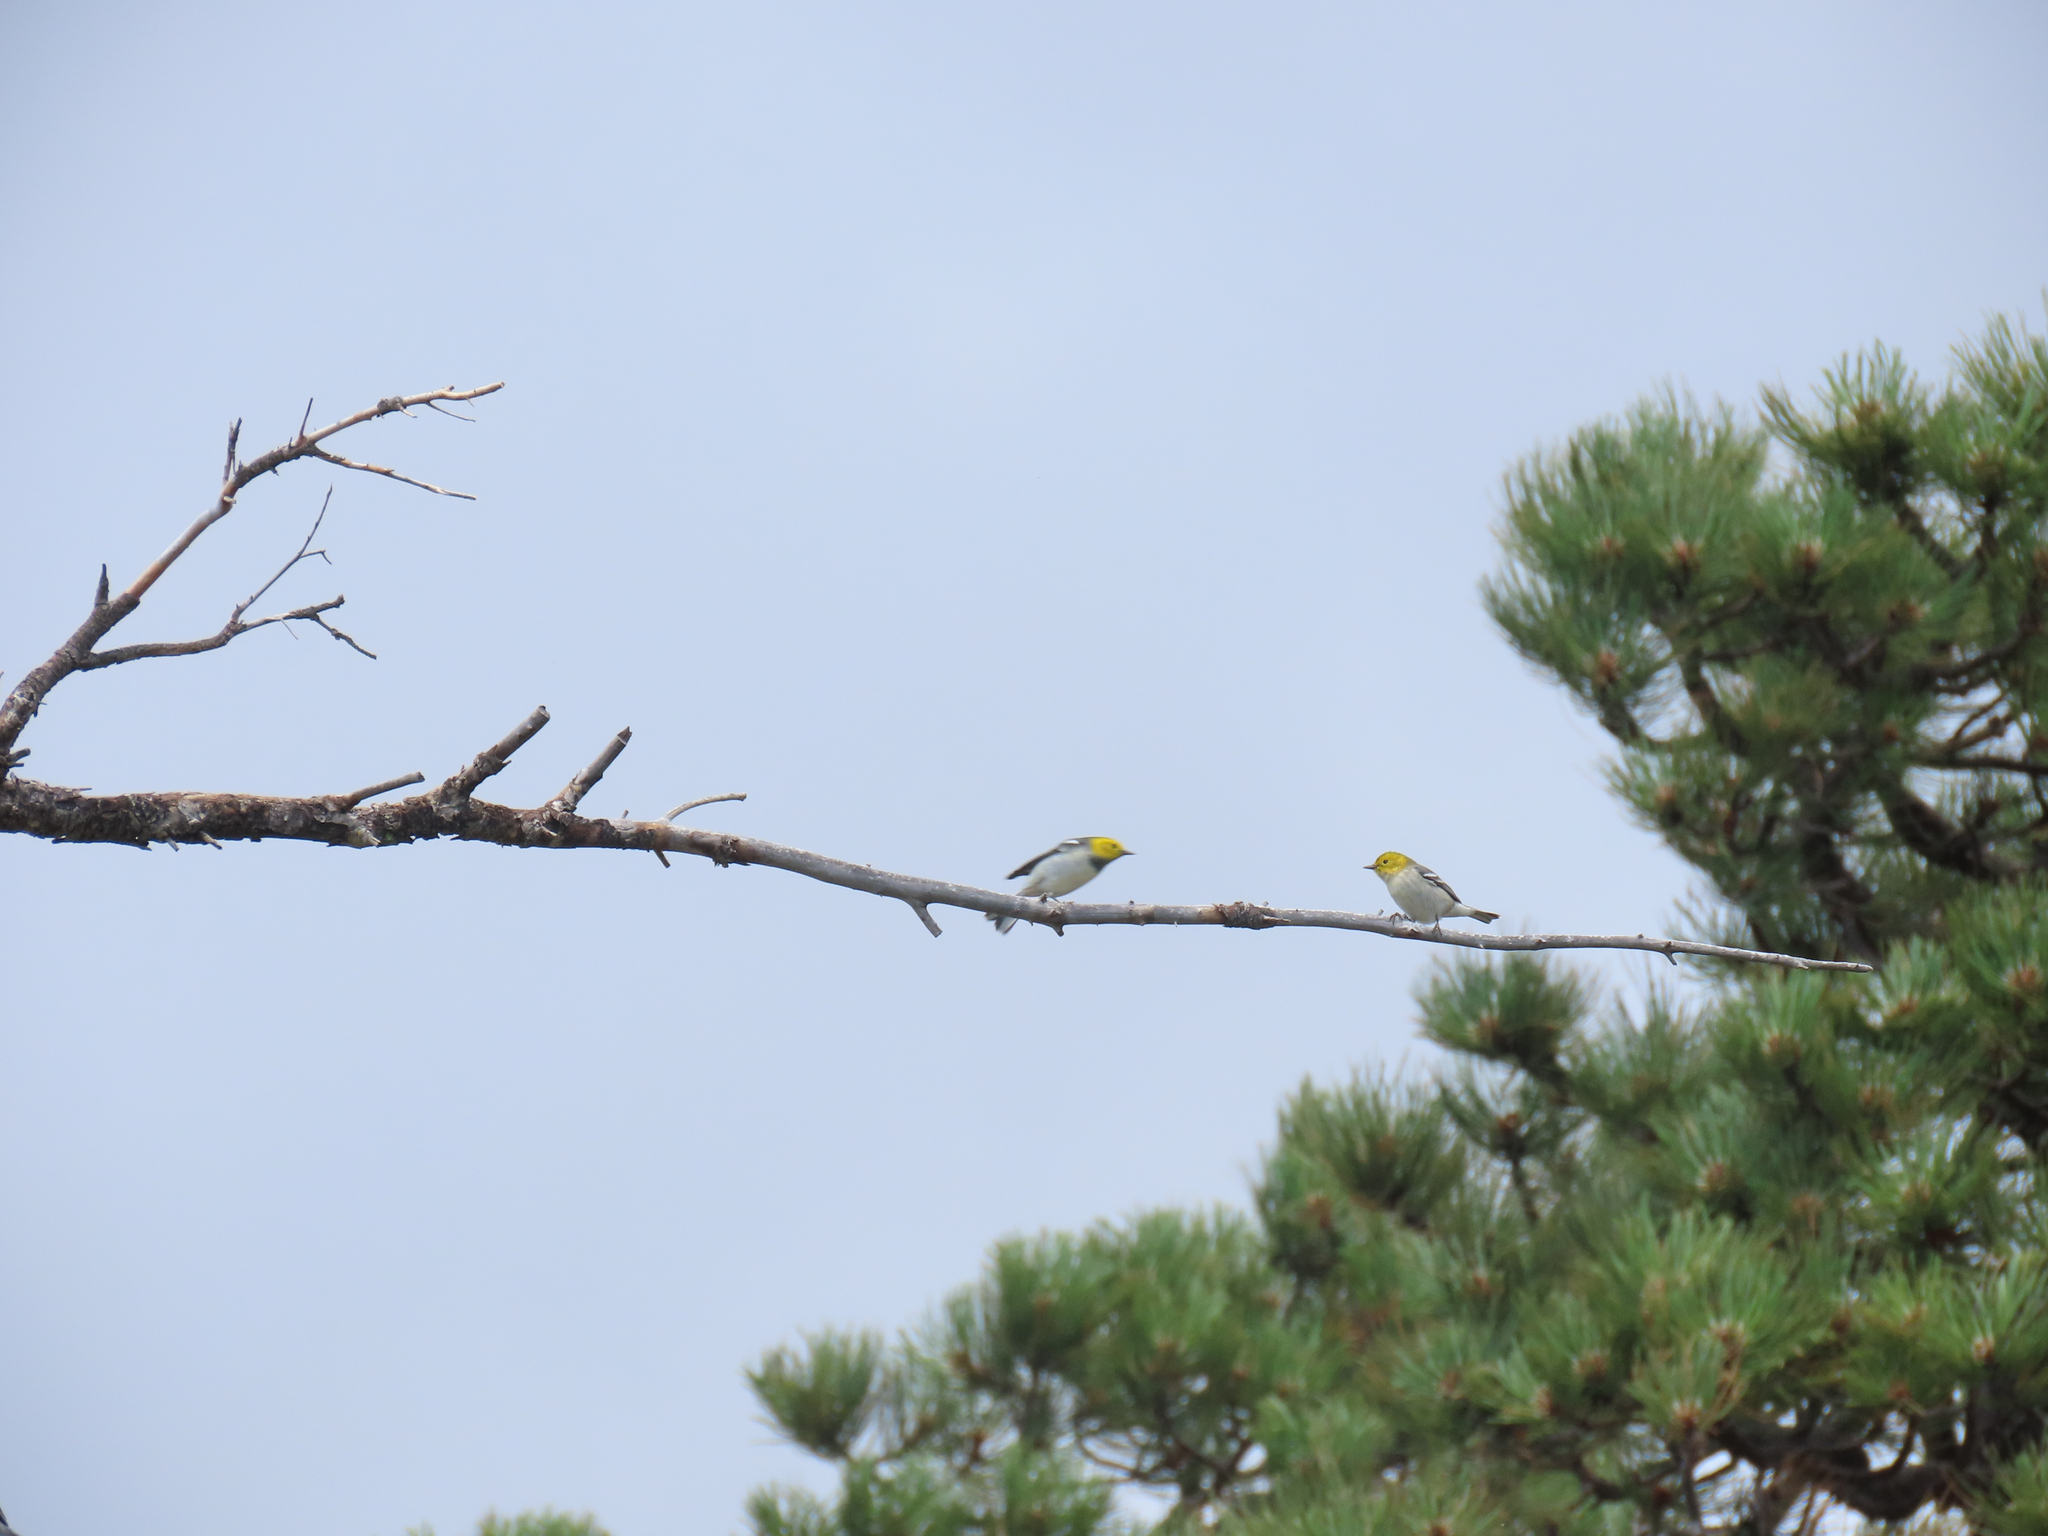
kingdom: Animalia
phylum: Chordata
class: Aves
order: Passeriformes
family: Parulidae
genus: Setophaga
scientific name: Setophaga occidentalis
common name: Hermit warbler
